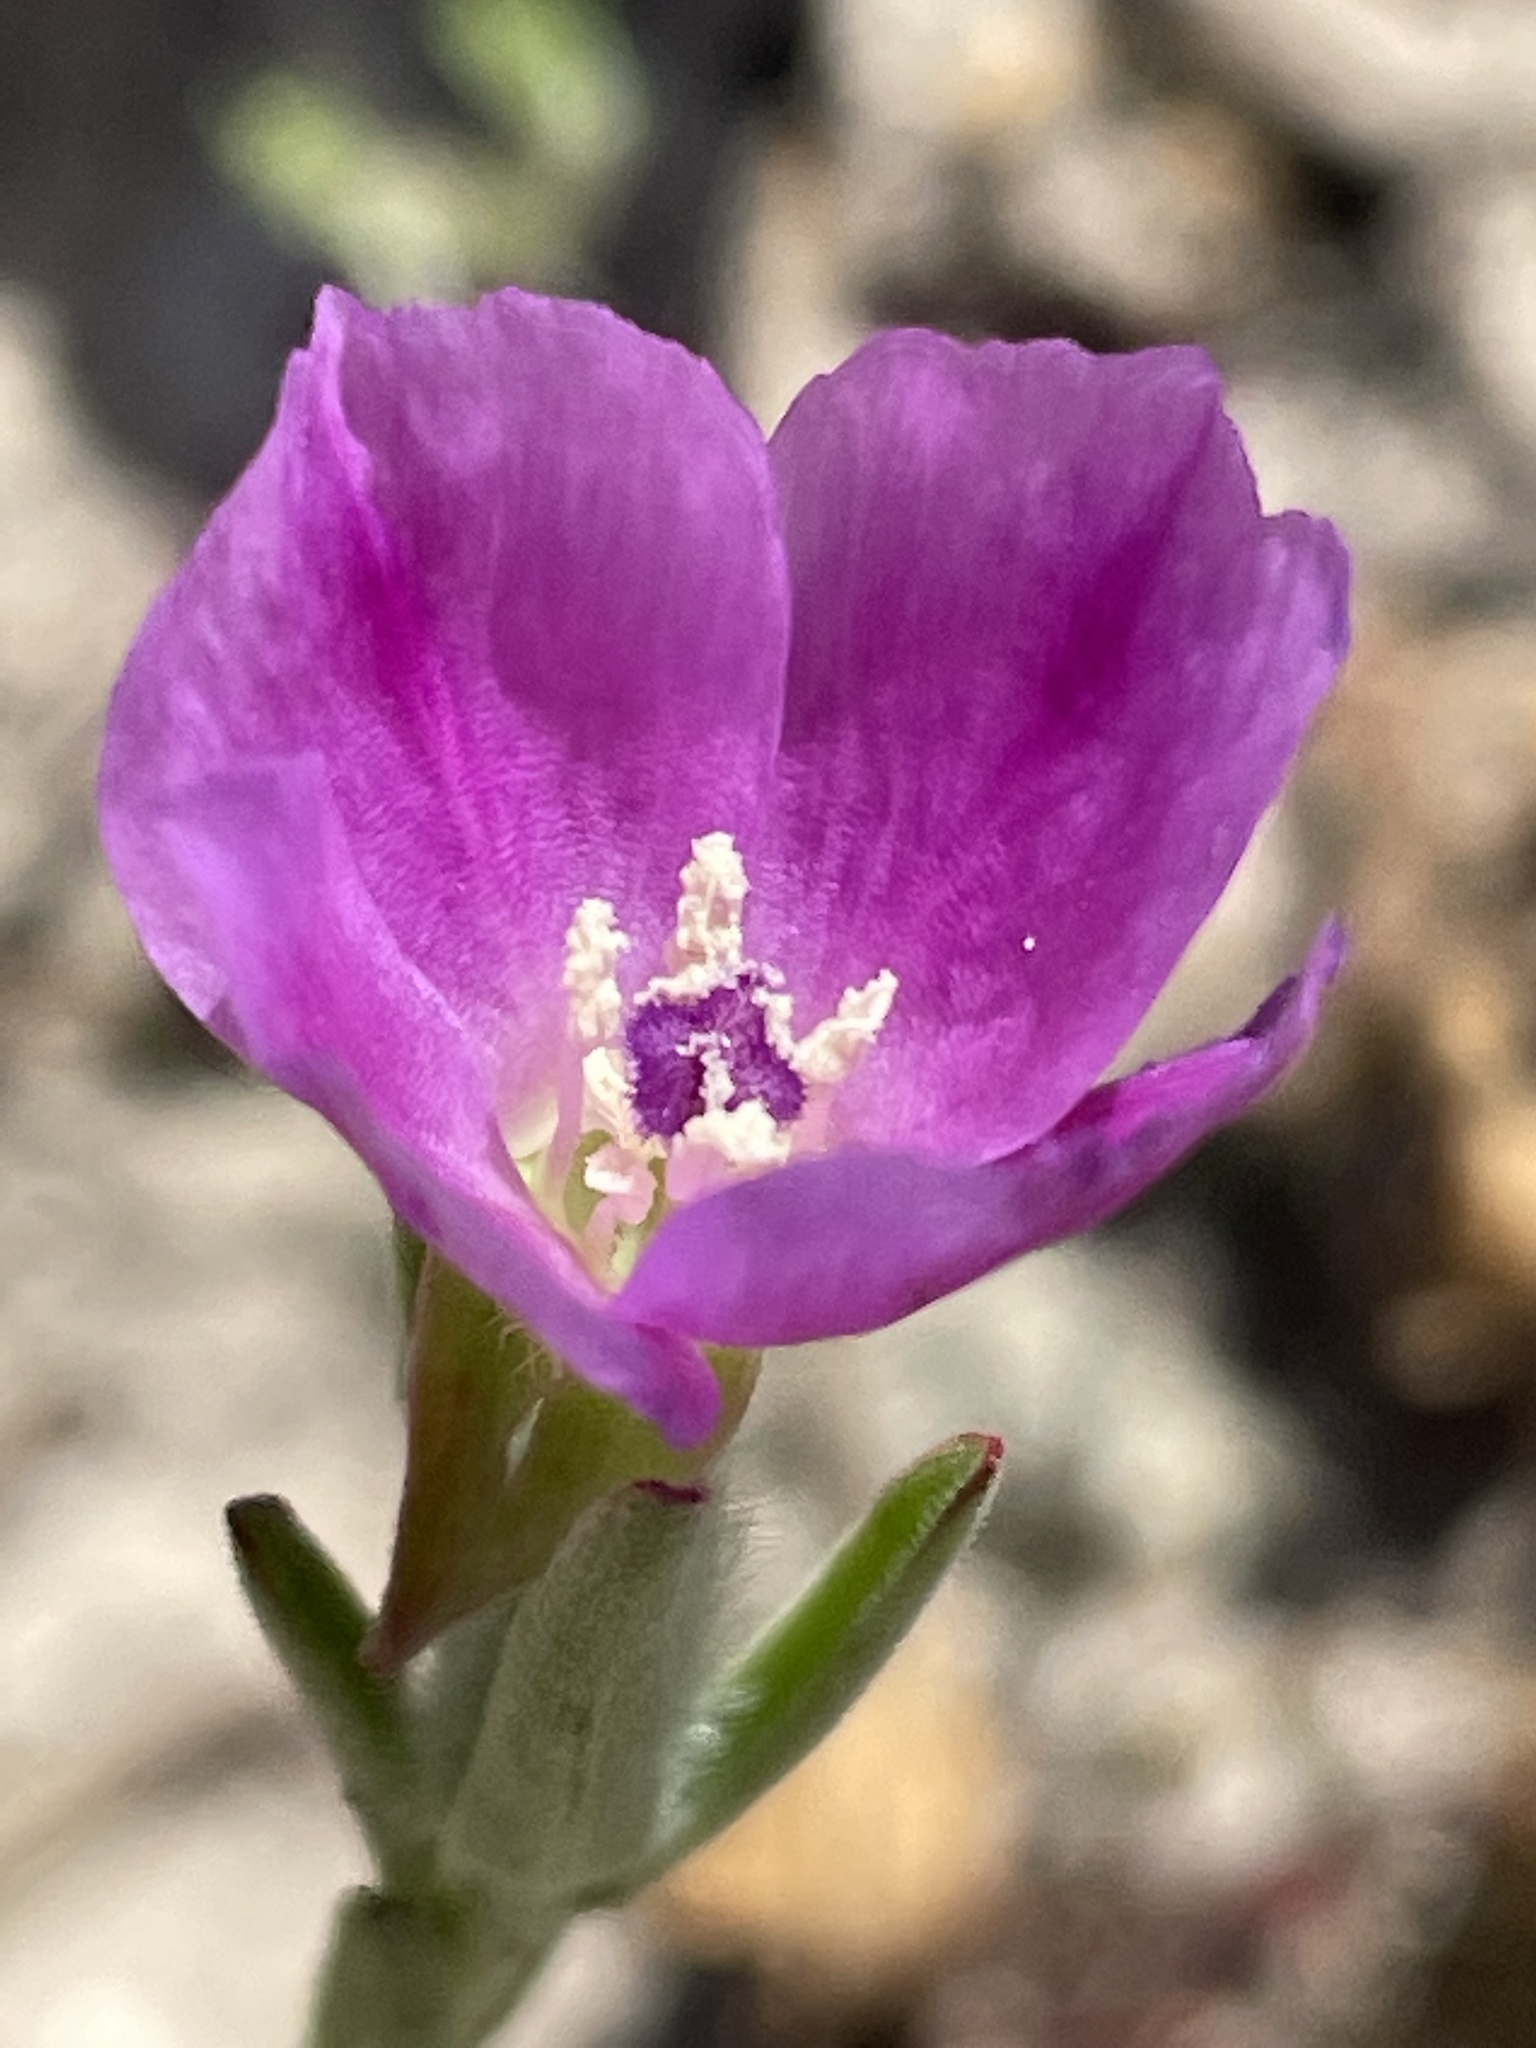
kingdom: Plantae
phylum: Tracheophyta
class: Magnoliopsida
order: Myrtales
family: Onagraceae
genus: Clarkia
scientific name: Clarkia purpurea
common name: Purple clarkia
